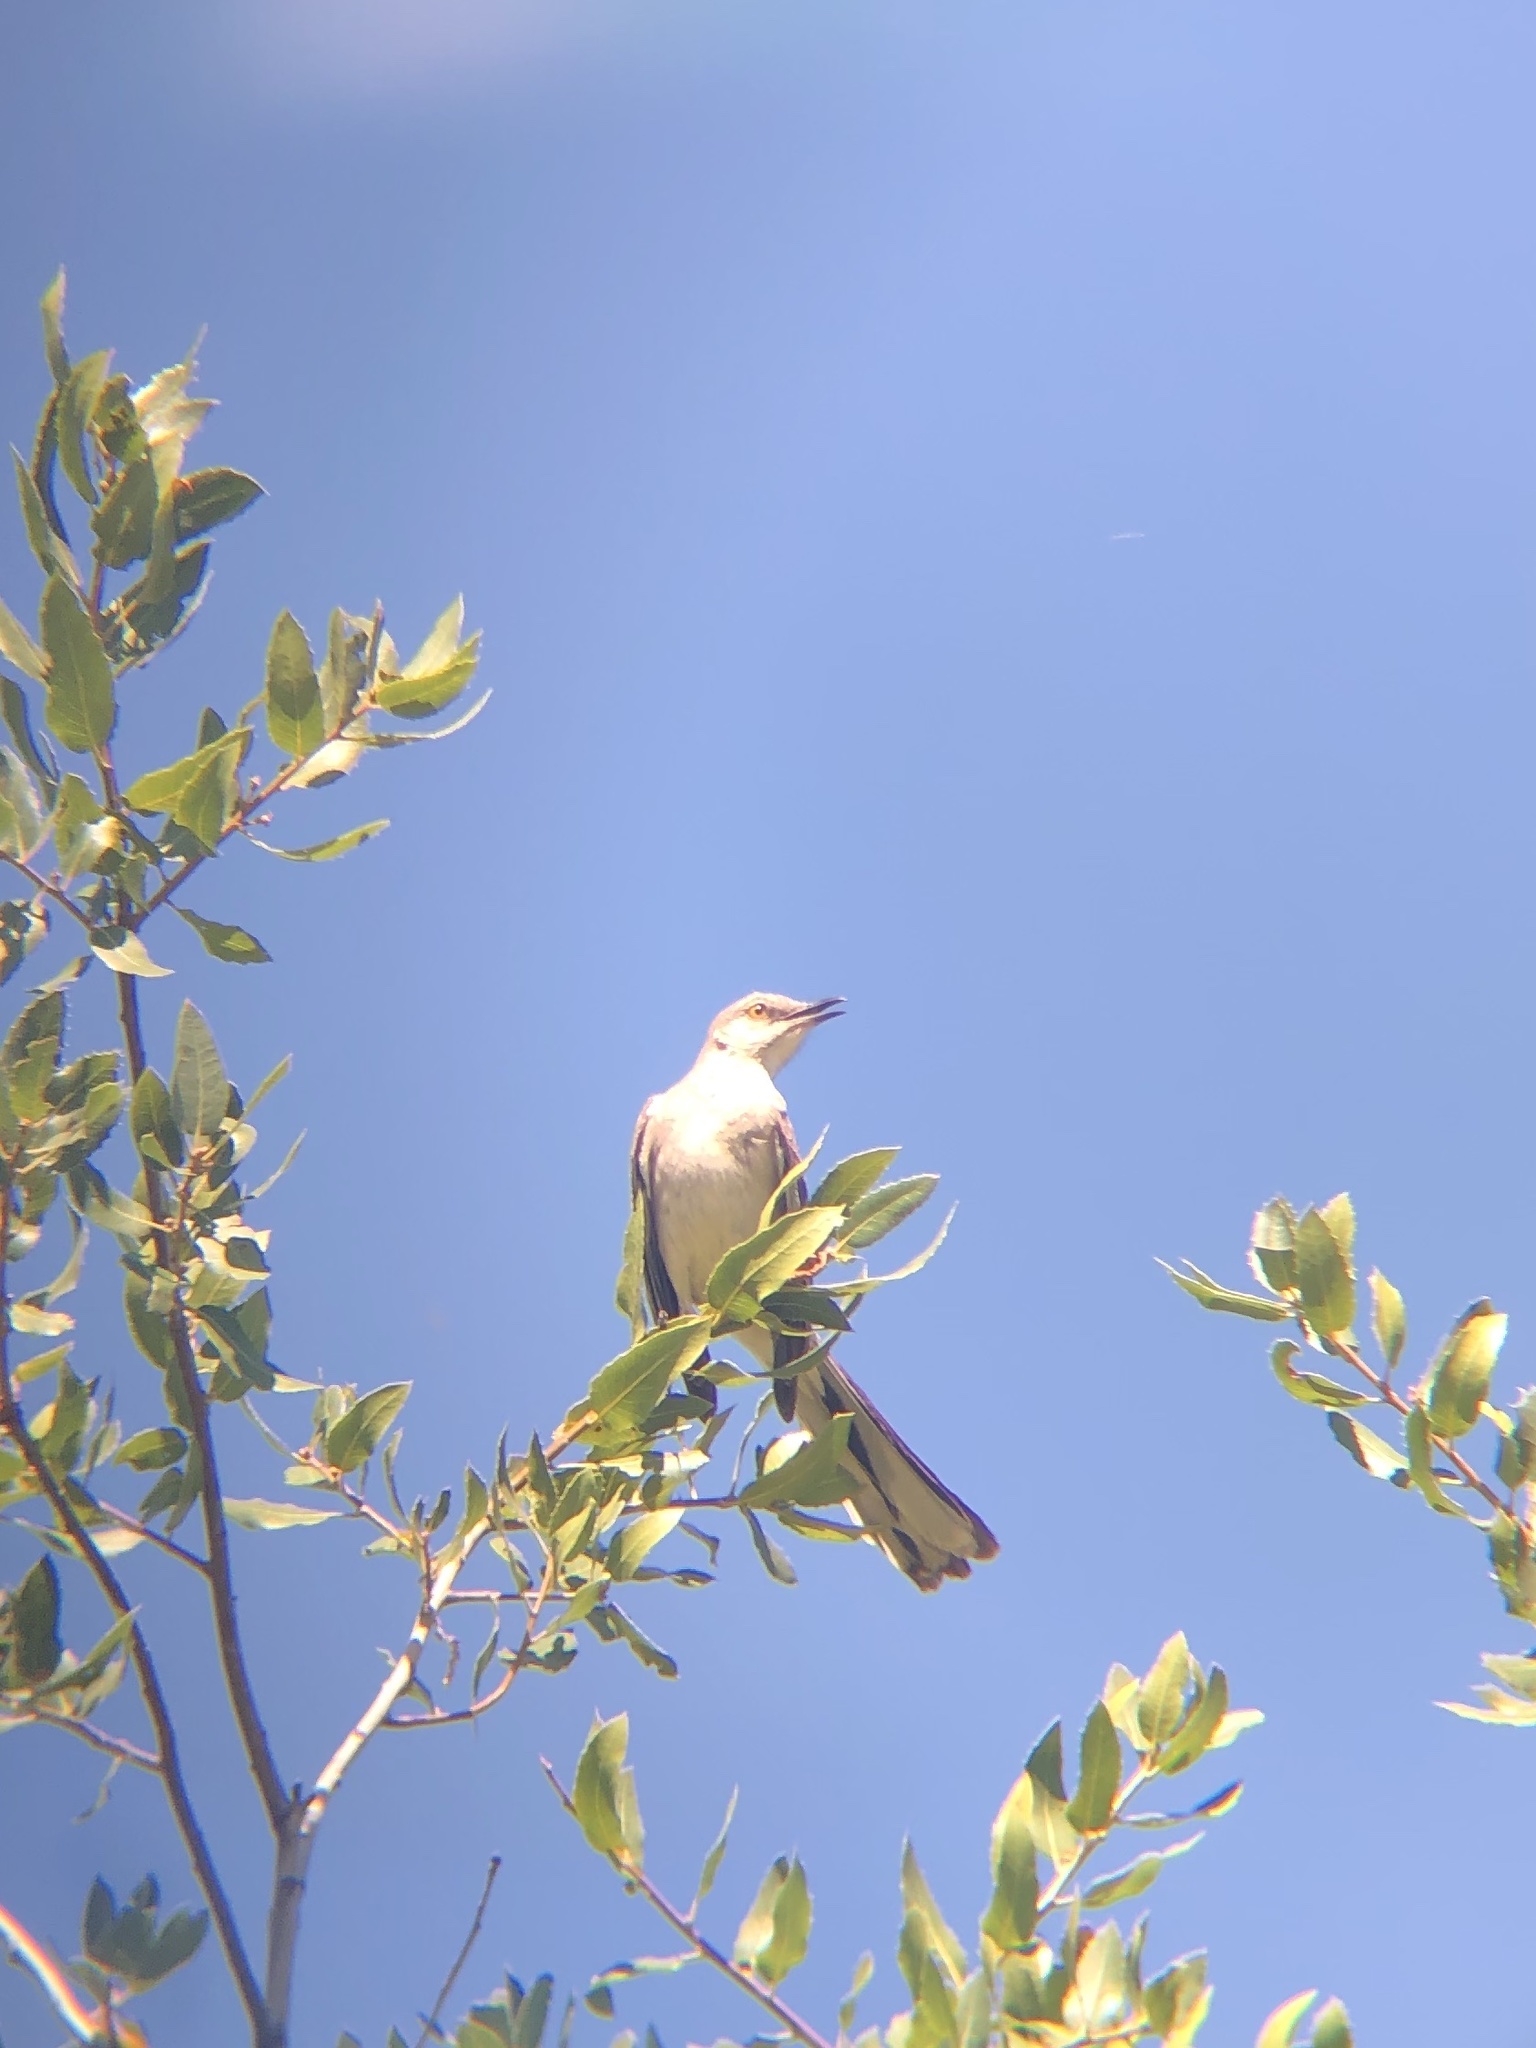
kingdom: Animalia
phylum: Chordata
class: Aves
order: Passeriformes
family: Mimidae
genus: Mimus
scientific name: Mimus polyglottos
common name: Northern mockingbird
